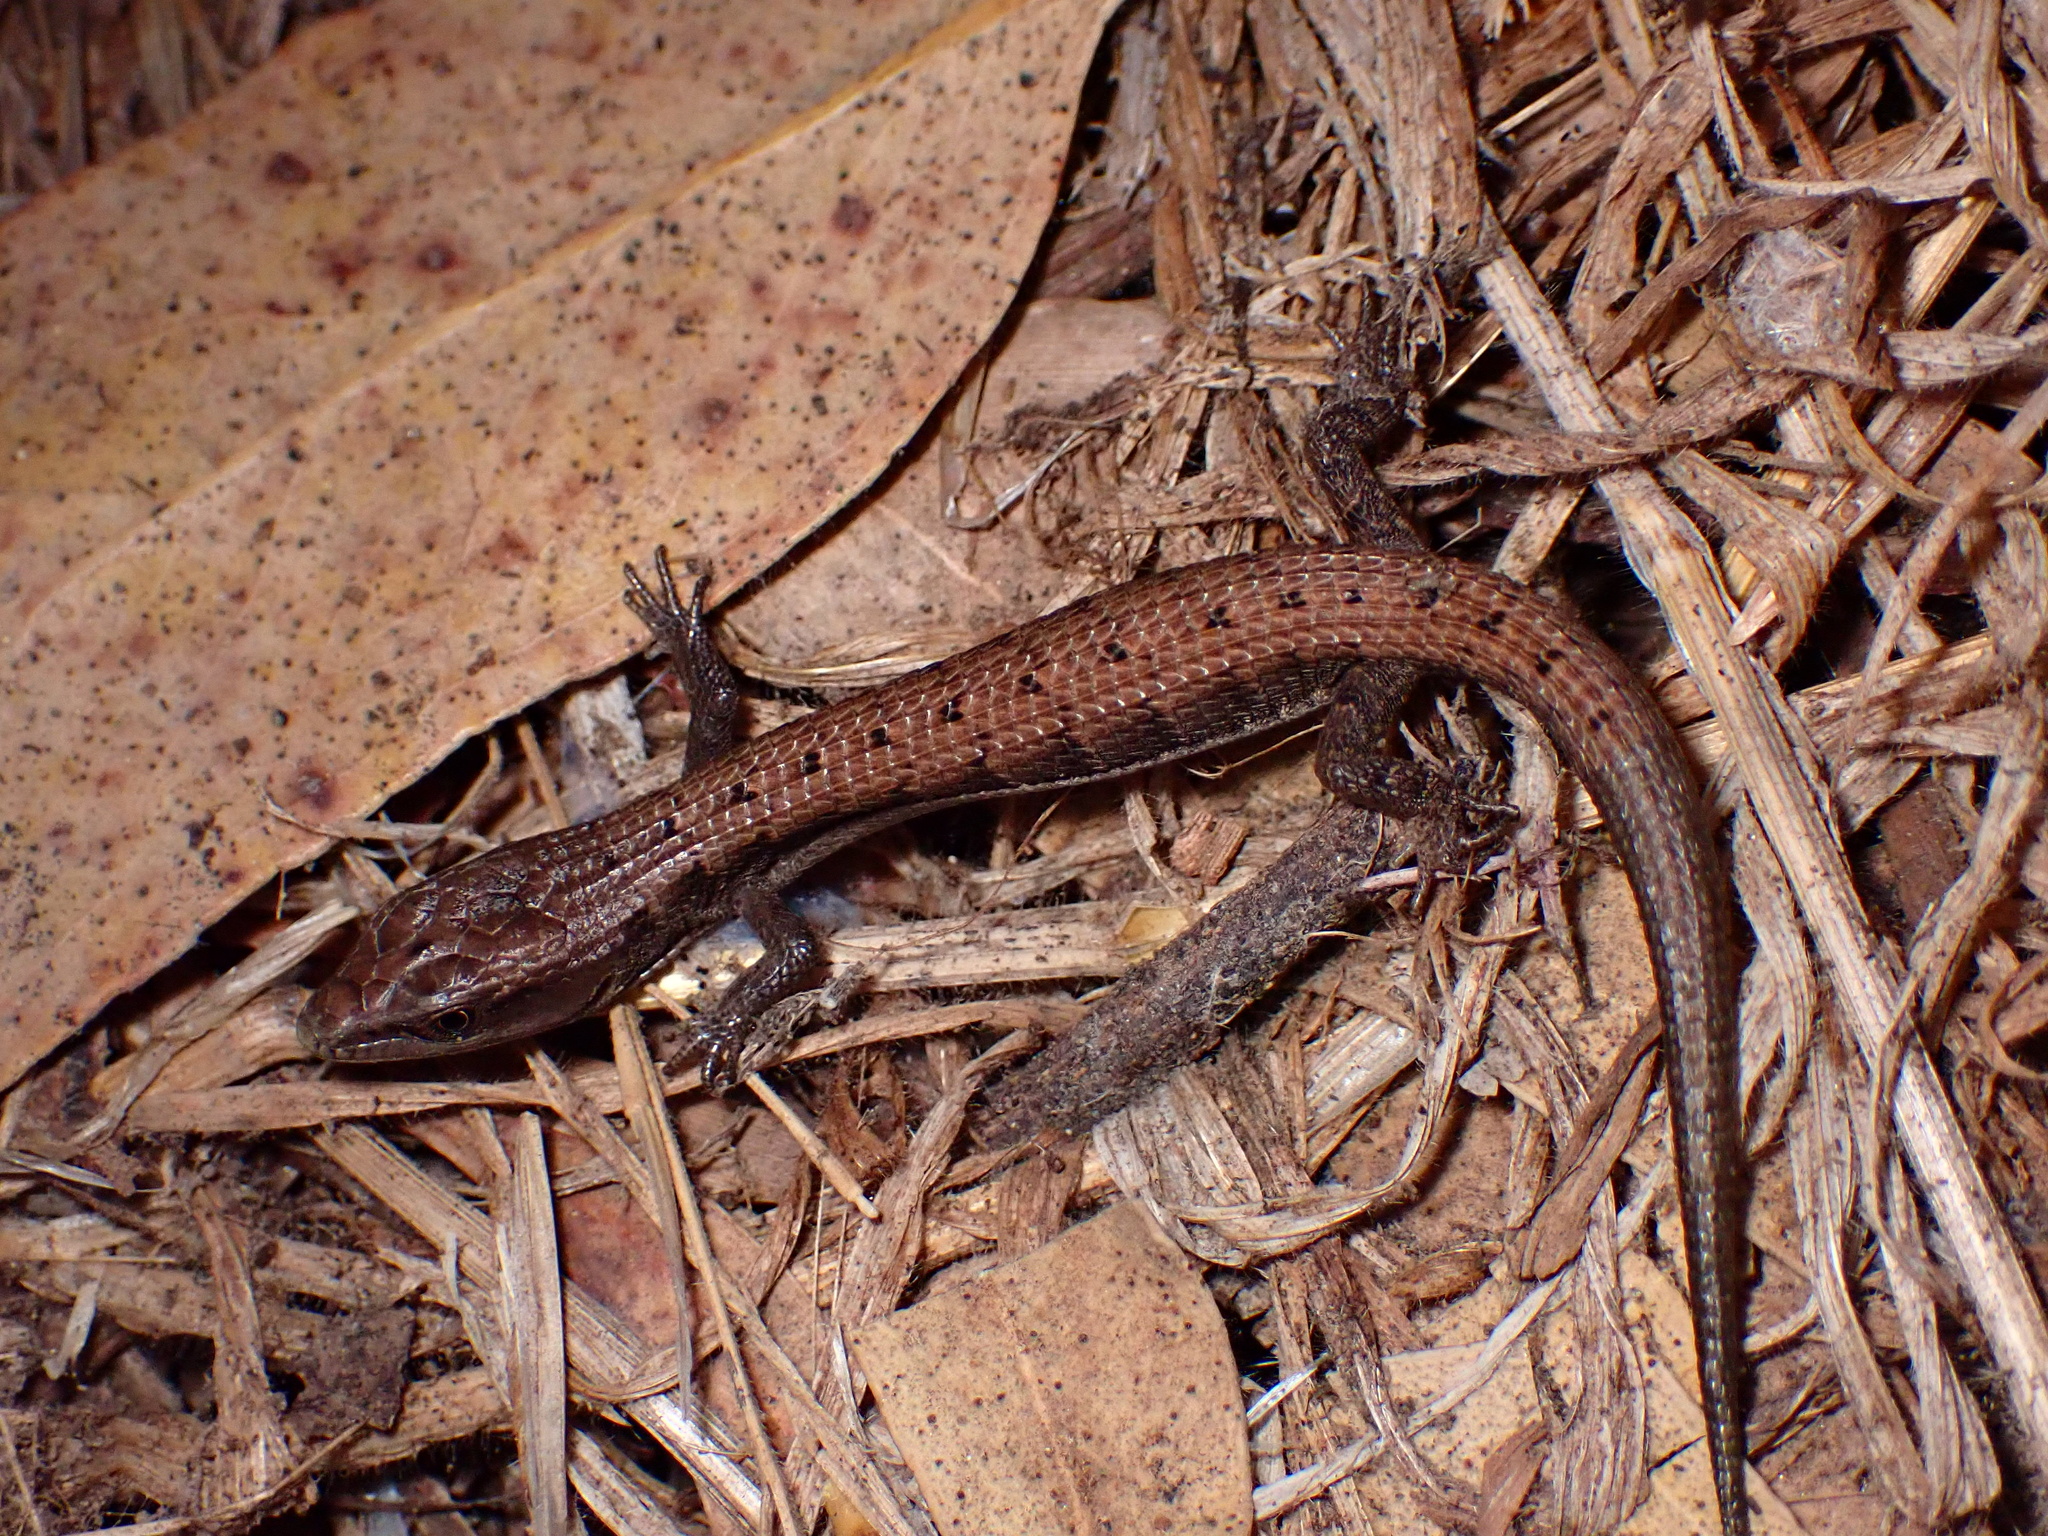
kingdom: Animalia
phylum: Chordata
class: Squamata
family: Anguidae
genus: Elgaria
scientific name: Elgaria multicarinata
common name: Southern alligator lizard
